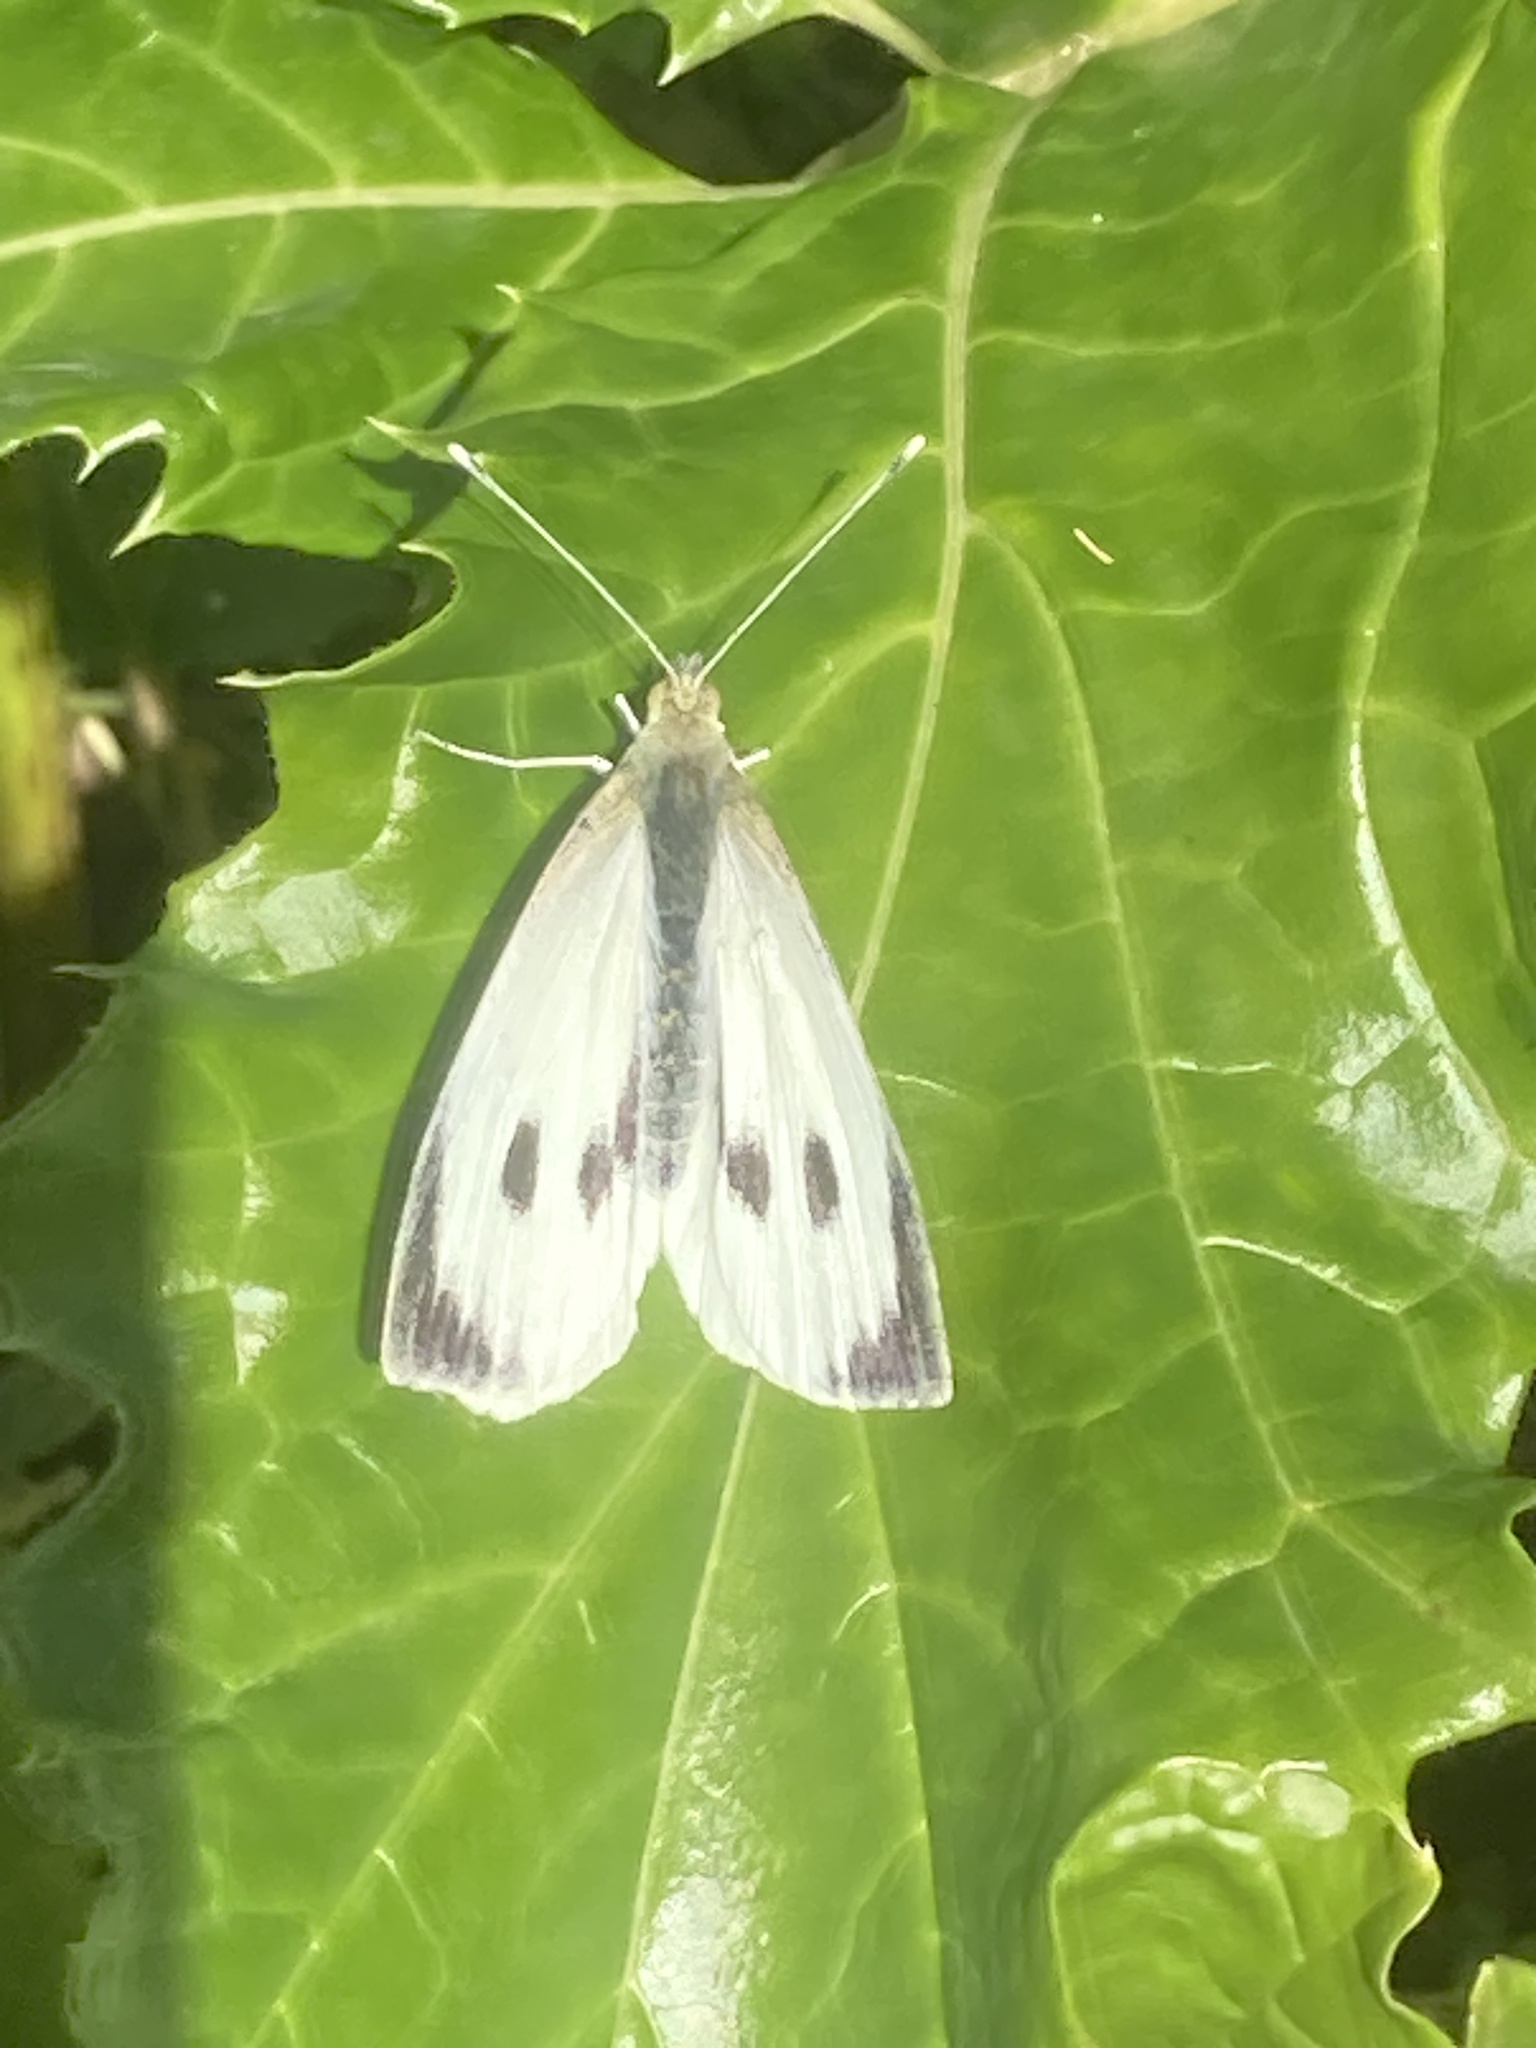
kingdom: Animalia
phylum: Arthropoda
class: Insecta
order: Lepidoptera
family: Pieridae
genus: Pieris
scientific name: Pieris brassicae
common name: Large white
